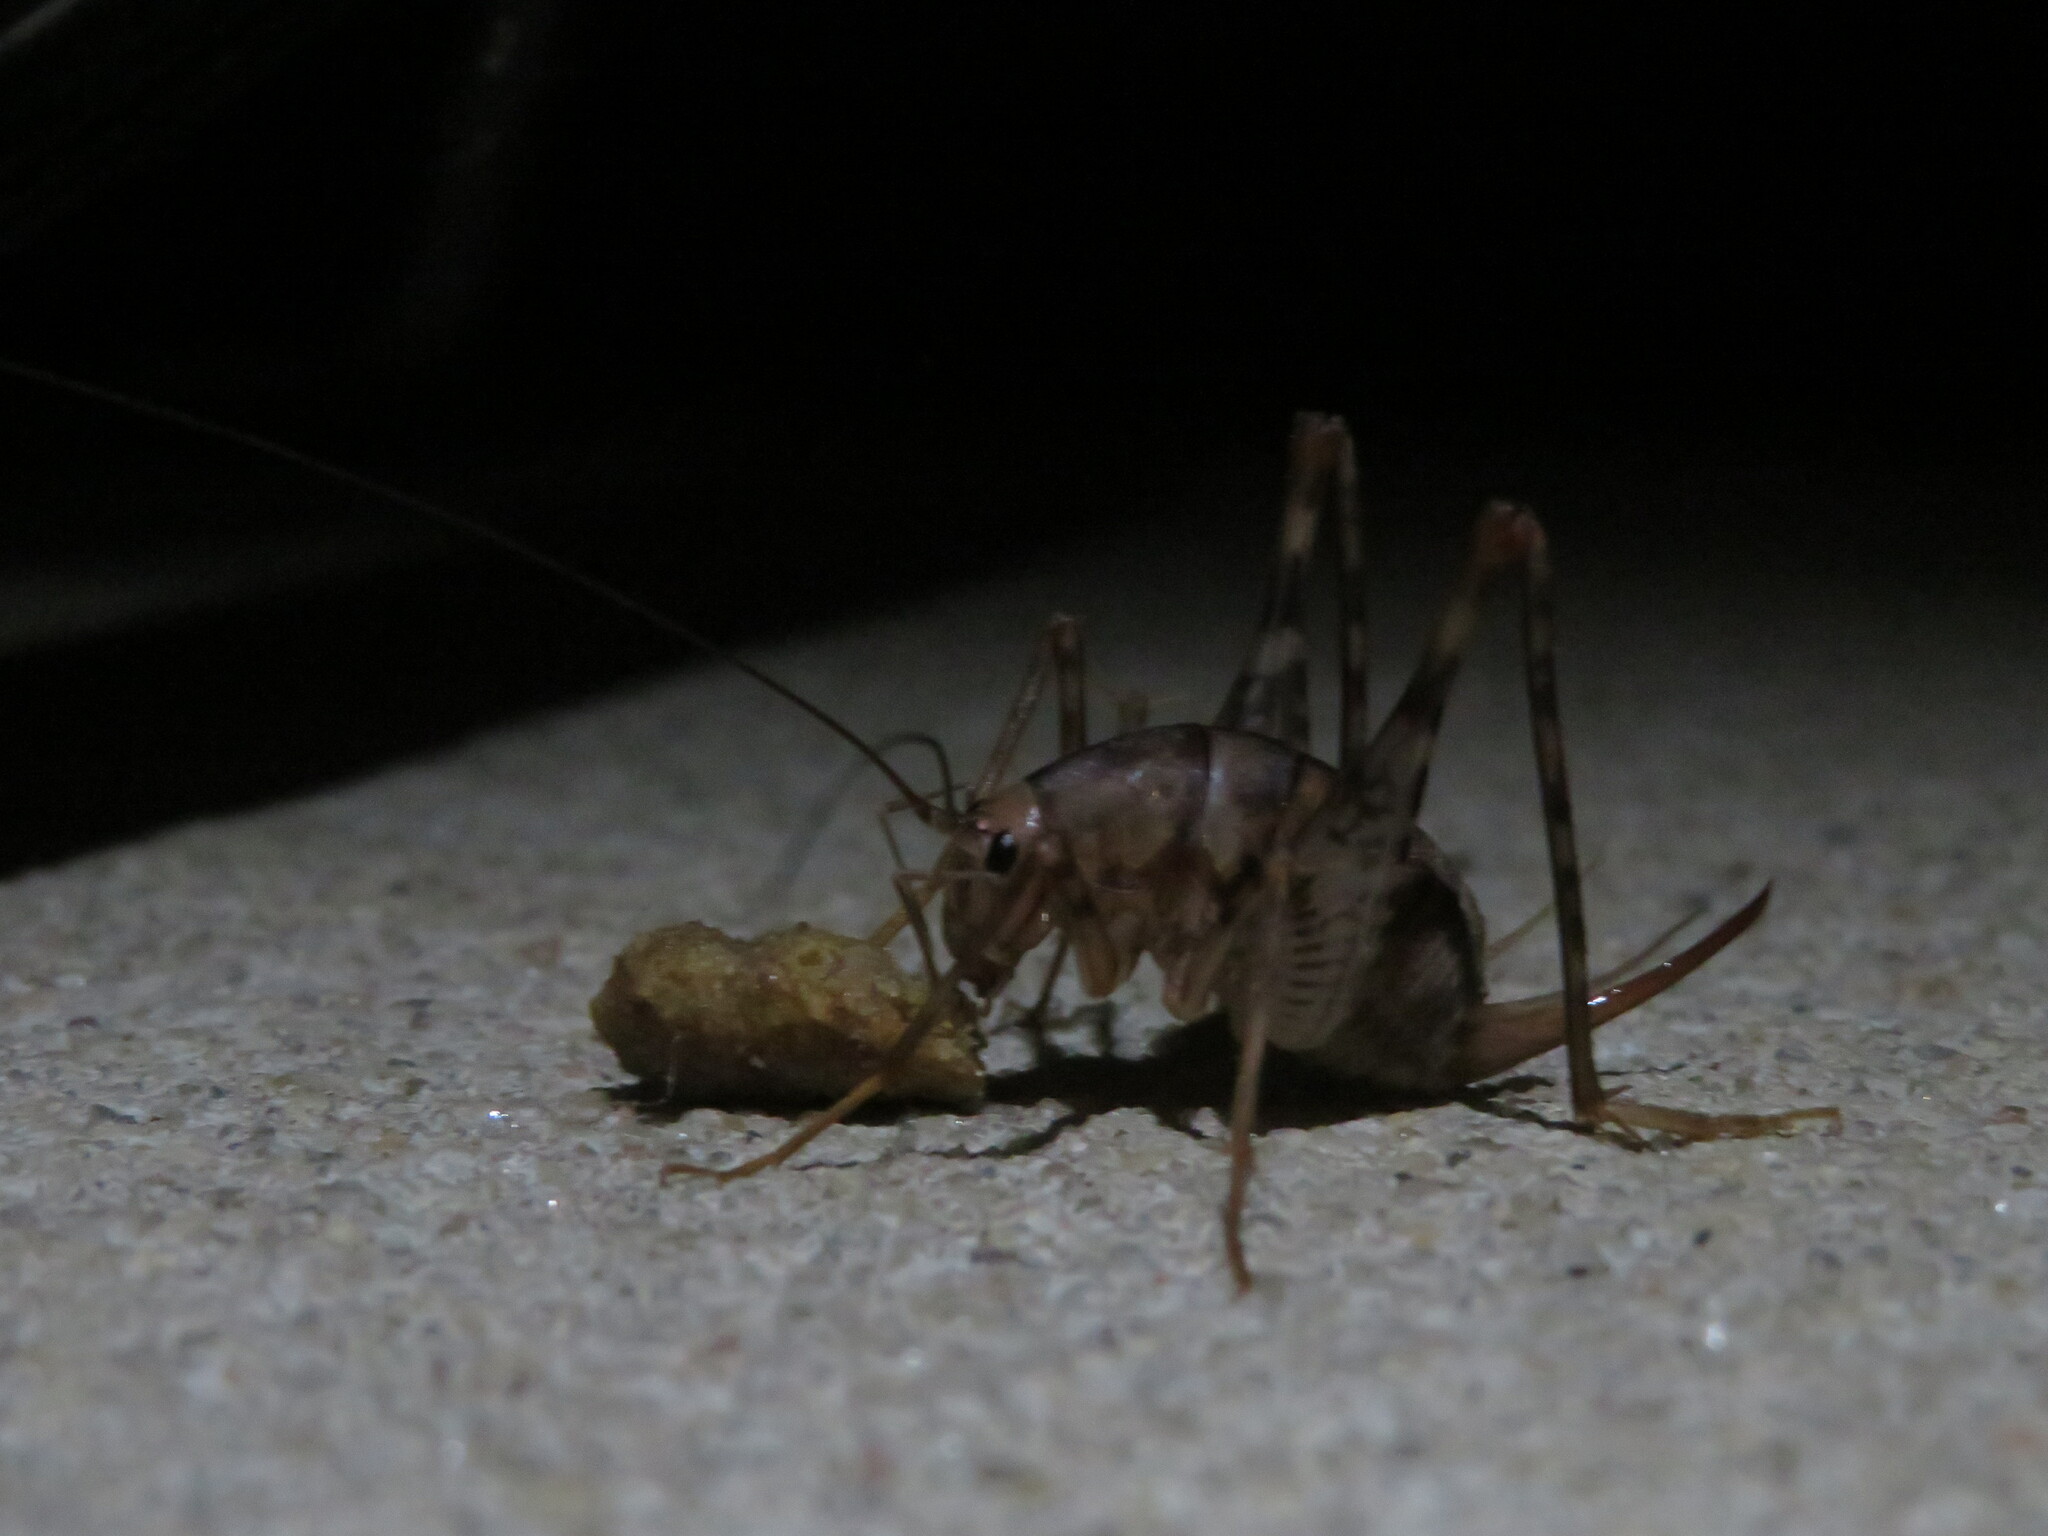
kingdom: Animalia
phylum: Arthropoda
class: Insecta
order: Orthoptera
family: Rhaphidophoridae
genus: Tachycines
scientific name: Tachycines asynamorus
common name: Greenhouse camel cricket
